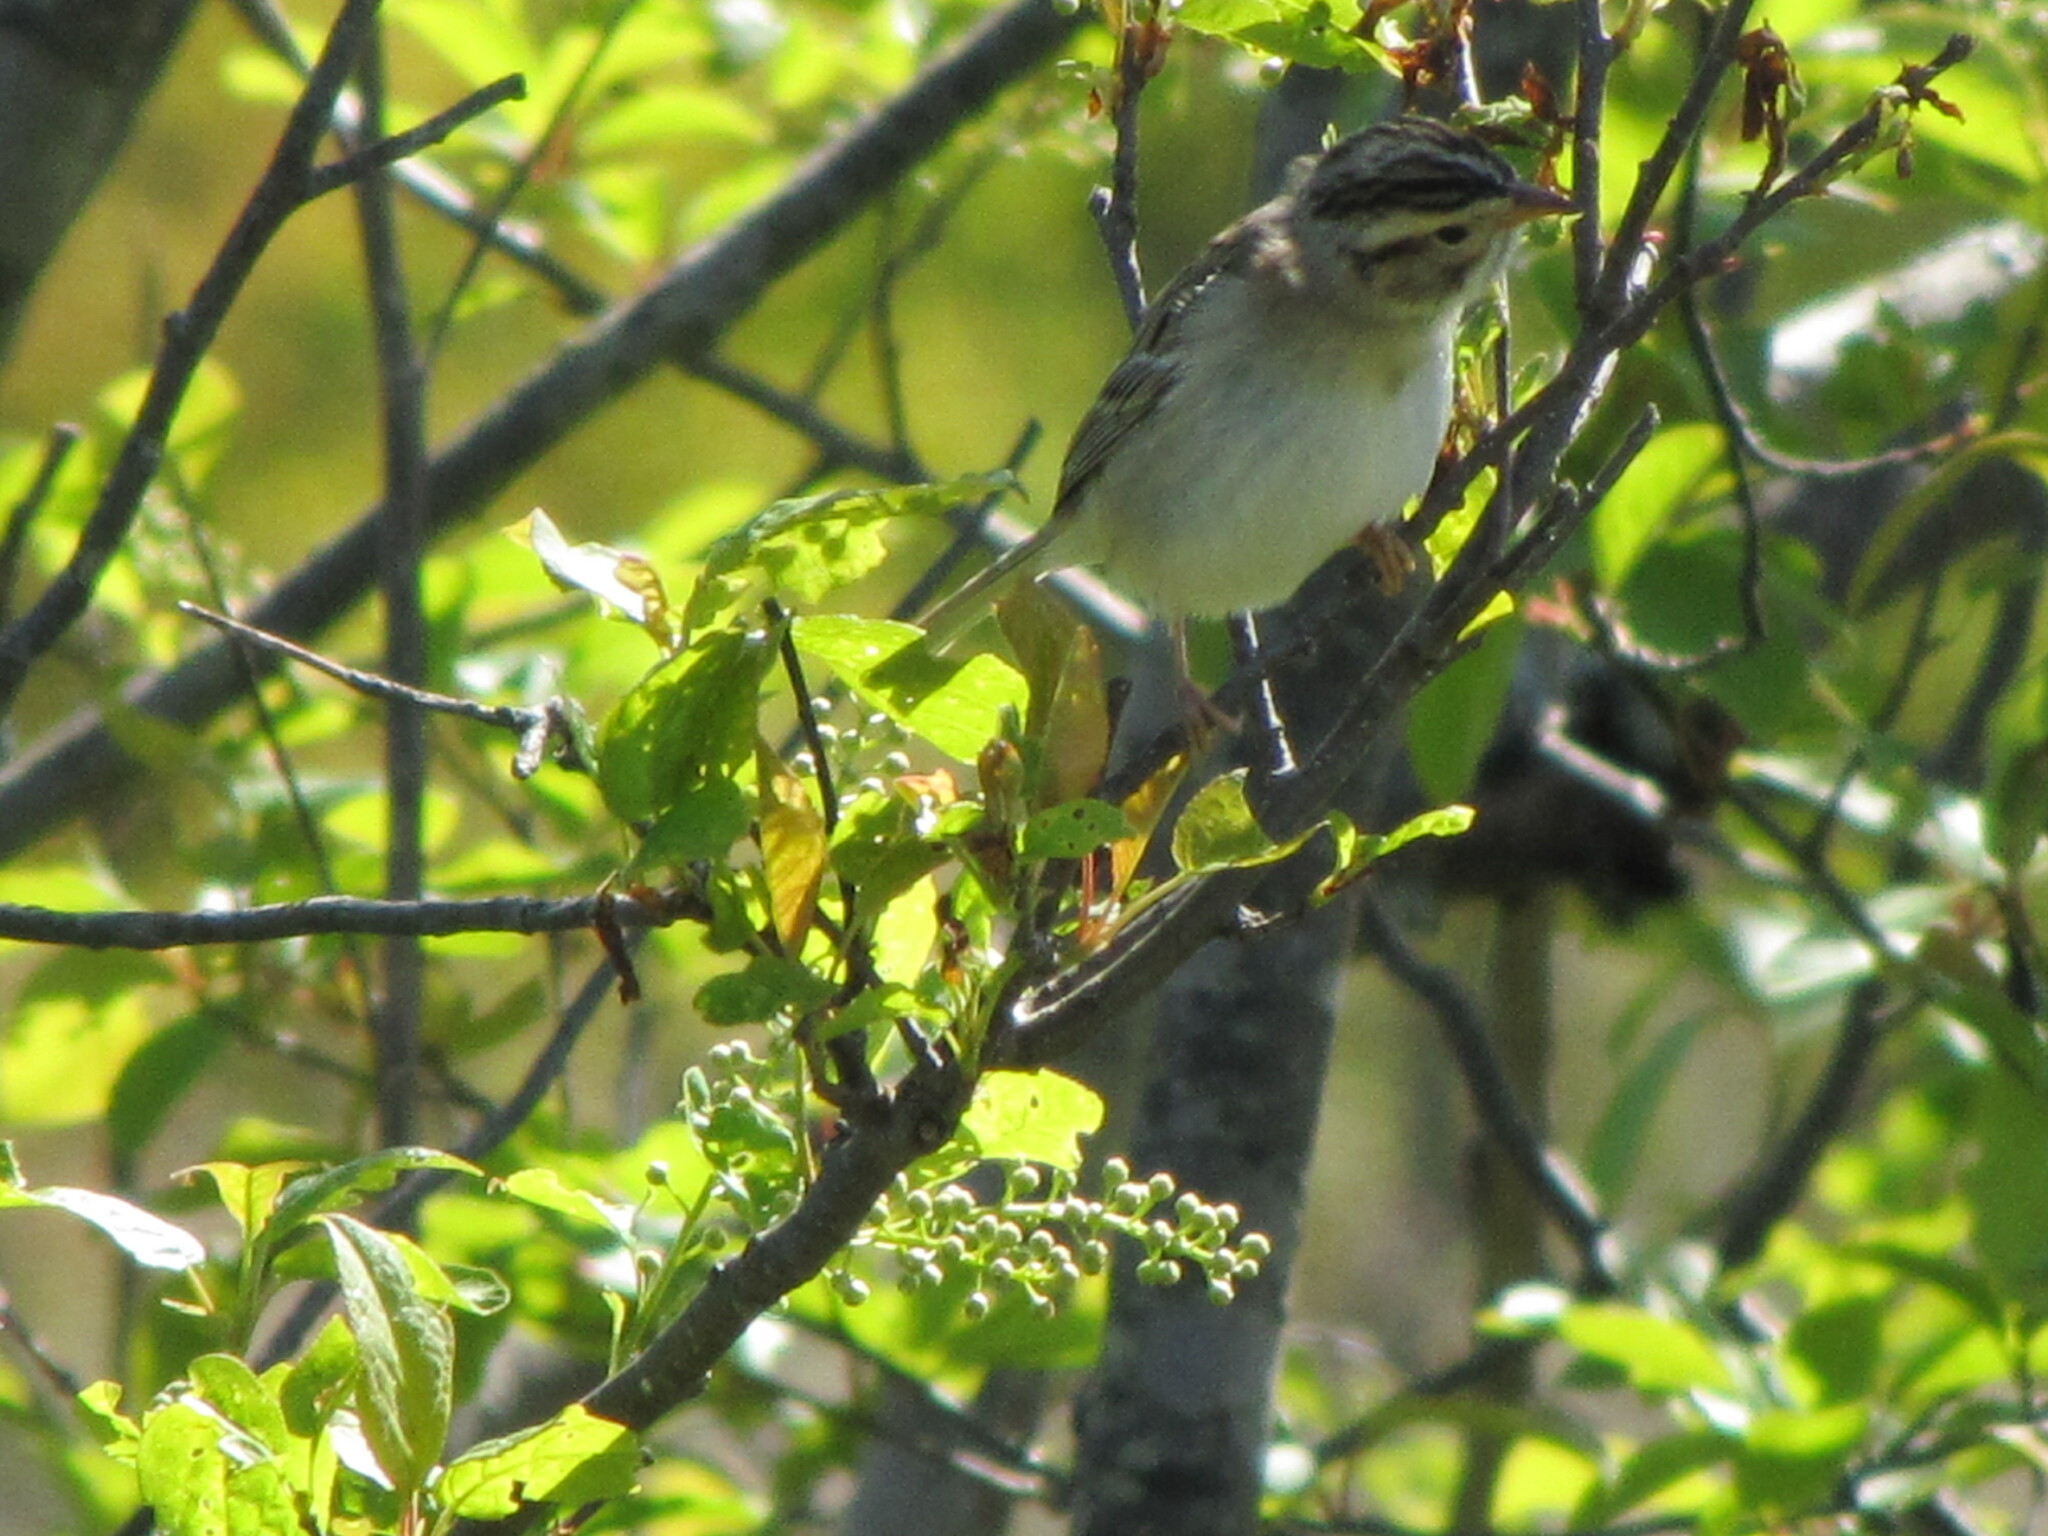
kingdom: Animalia
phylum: Chordata
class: Aves
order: Passeriformes
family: Passerellidae
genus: Spizella
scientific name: Spizella pallida
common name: Clay-colored sparrow
